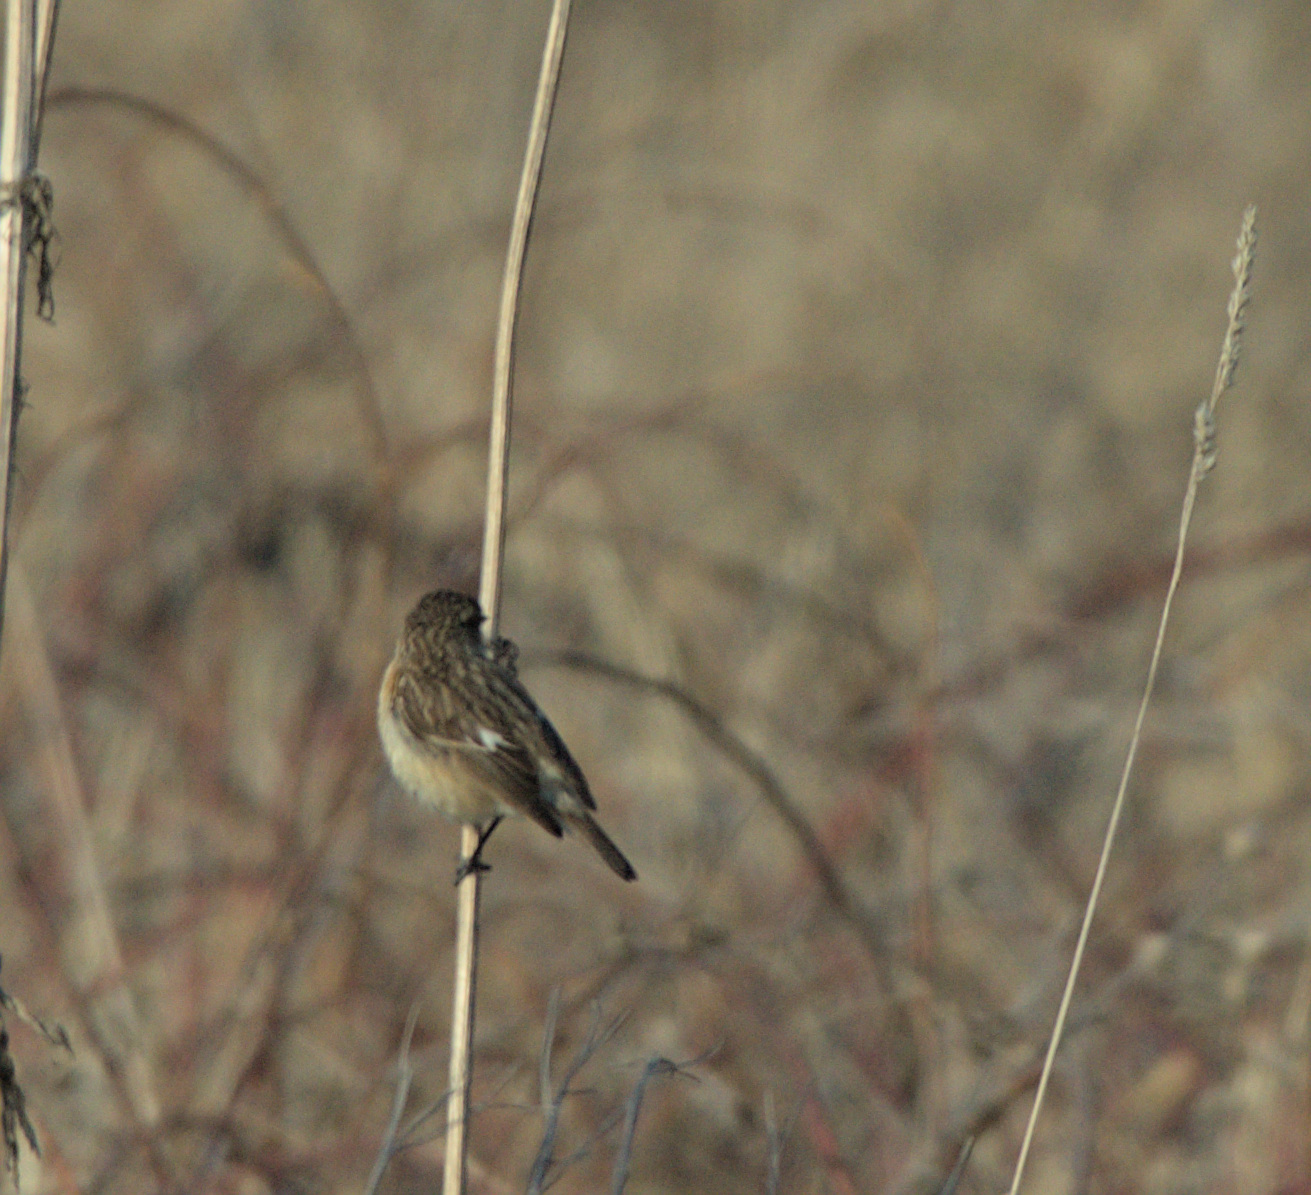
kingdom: Animalia
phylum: Chordata
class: Aves
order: Passeriformes
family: Muscicapidae
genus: Saxicola
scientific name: Saxicola maurus
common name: Siberian stonechat
